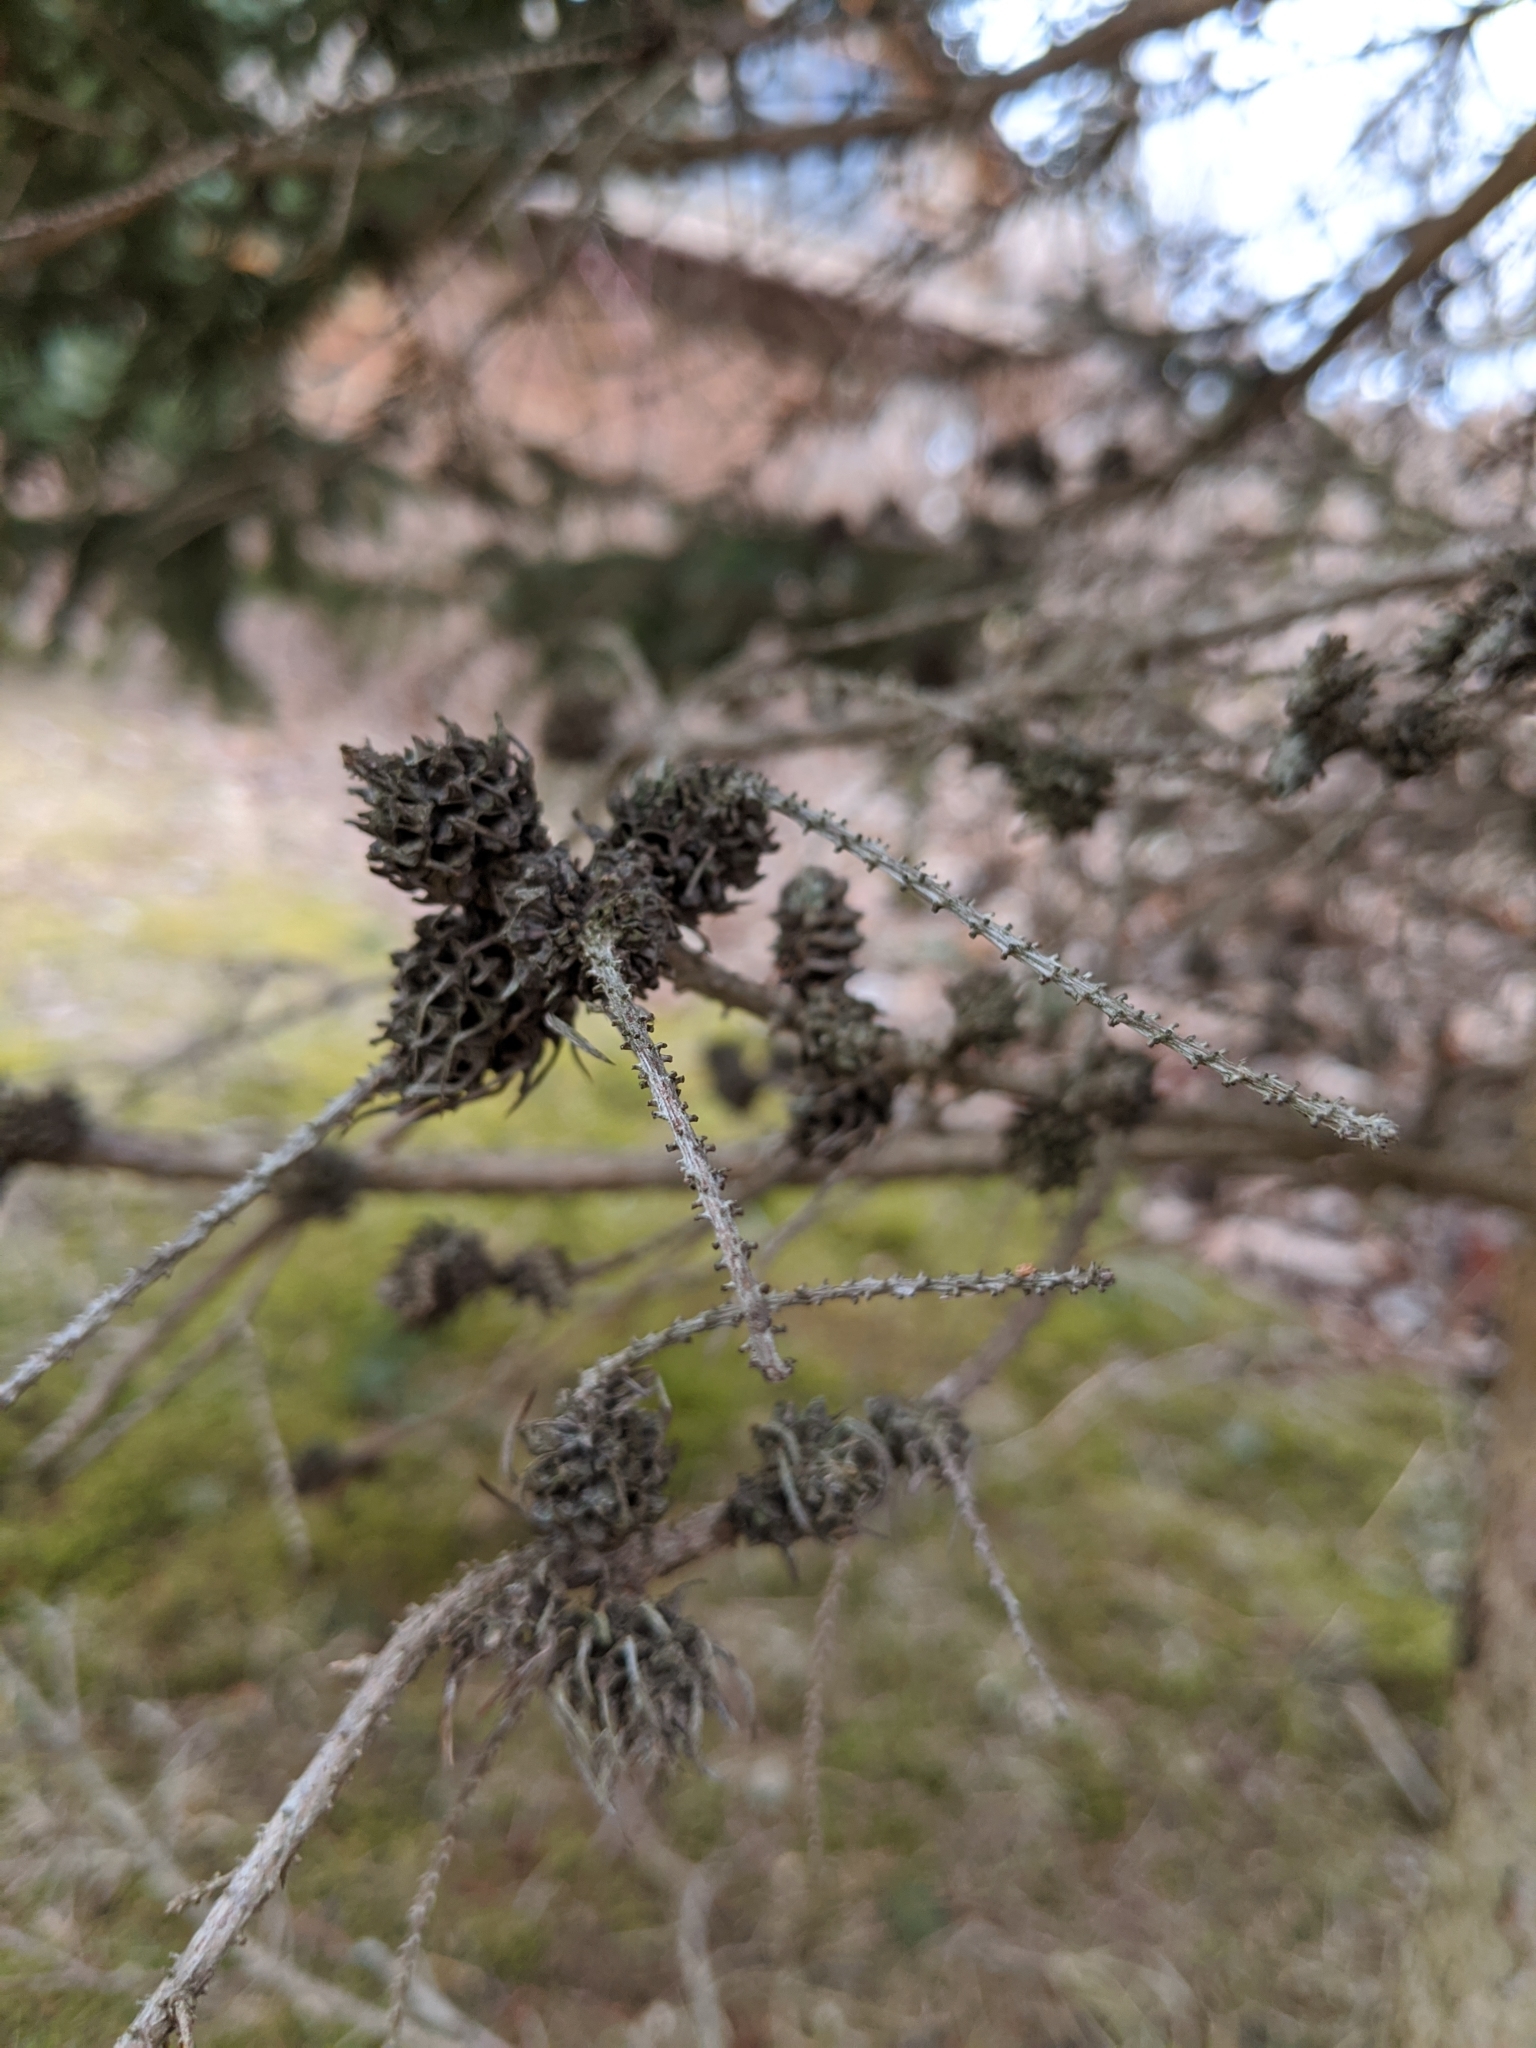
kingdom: Animalia
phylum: Arthropoda
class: Insecta
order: Hemiptera
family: Adelgidae
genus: Adelges
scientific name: Adelges abietis
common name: Eastern spruce gall adelgid
